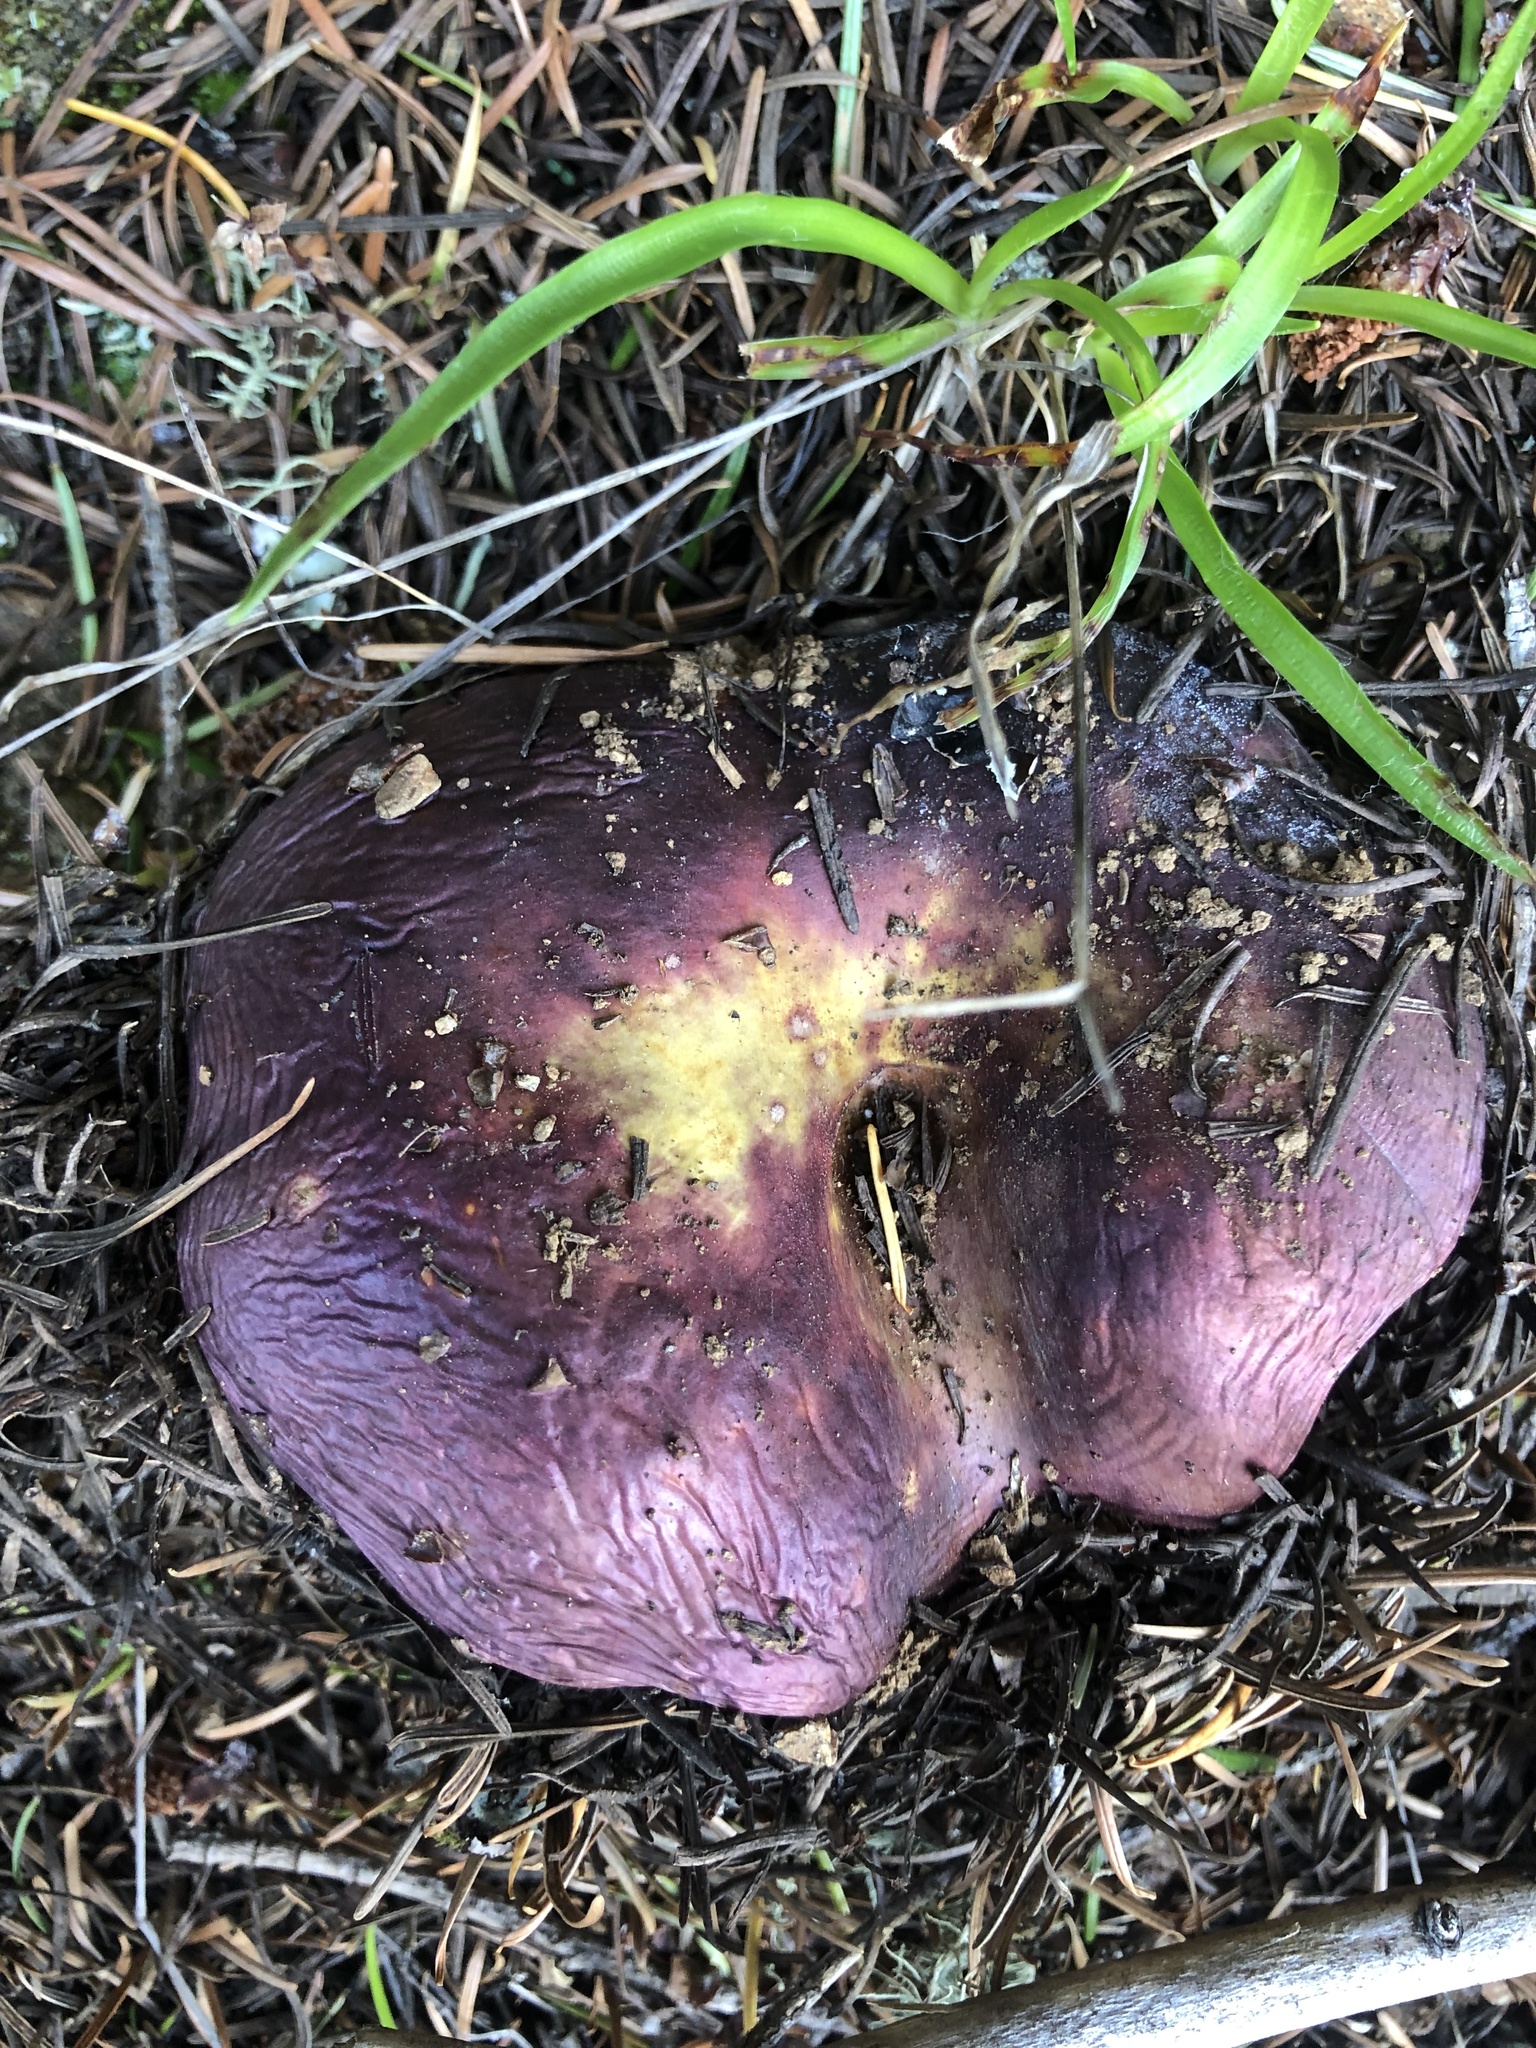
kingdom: Fungi
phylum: Basidiomycota
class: Agaricomycetes
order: Russulales
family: Russulaceae
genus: Russula
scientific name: Russula xerampelina
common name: Crab brittlegill
